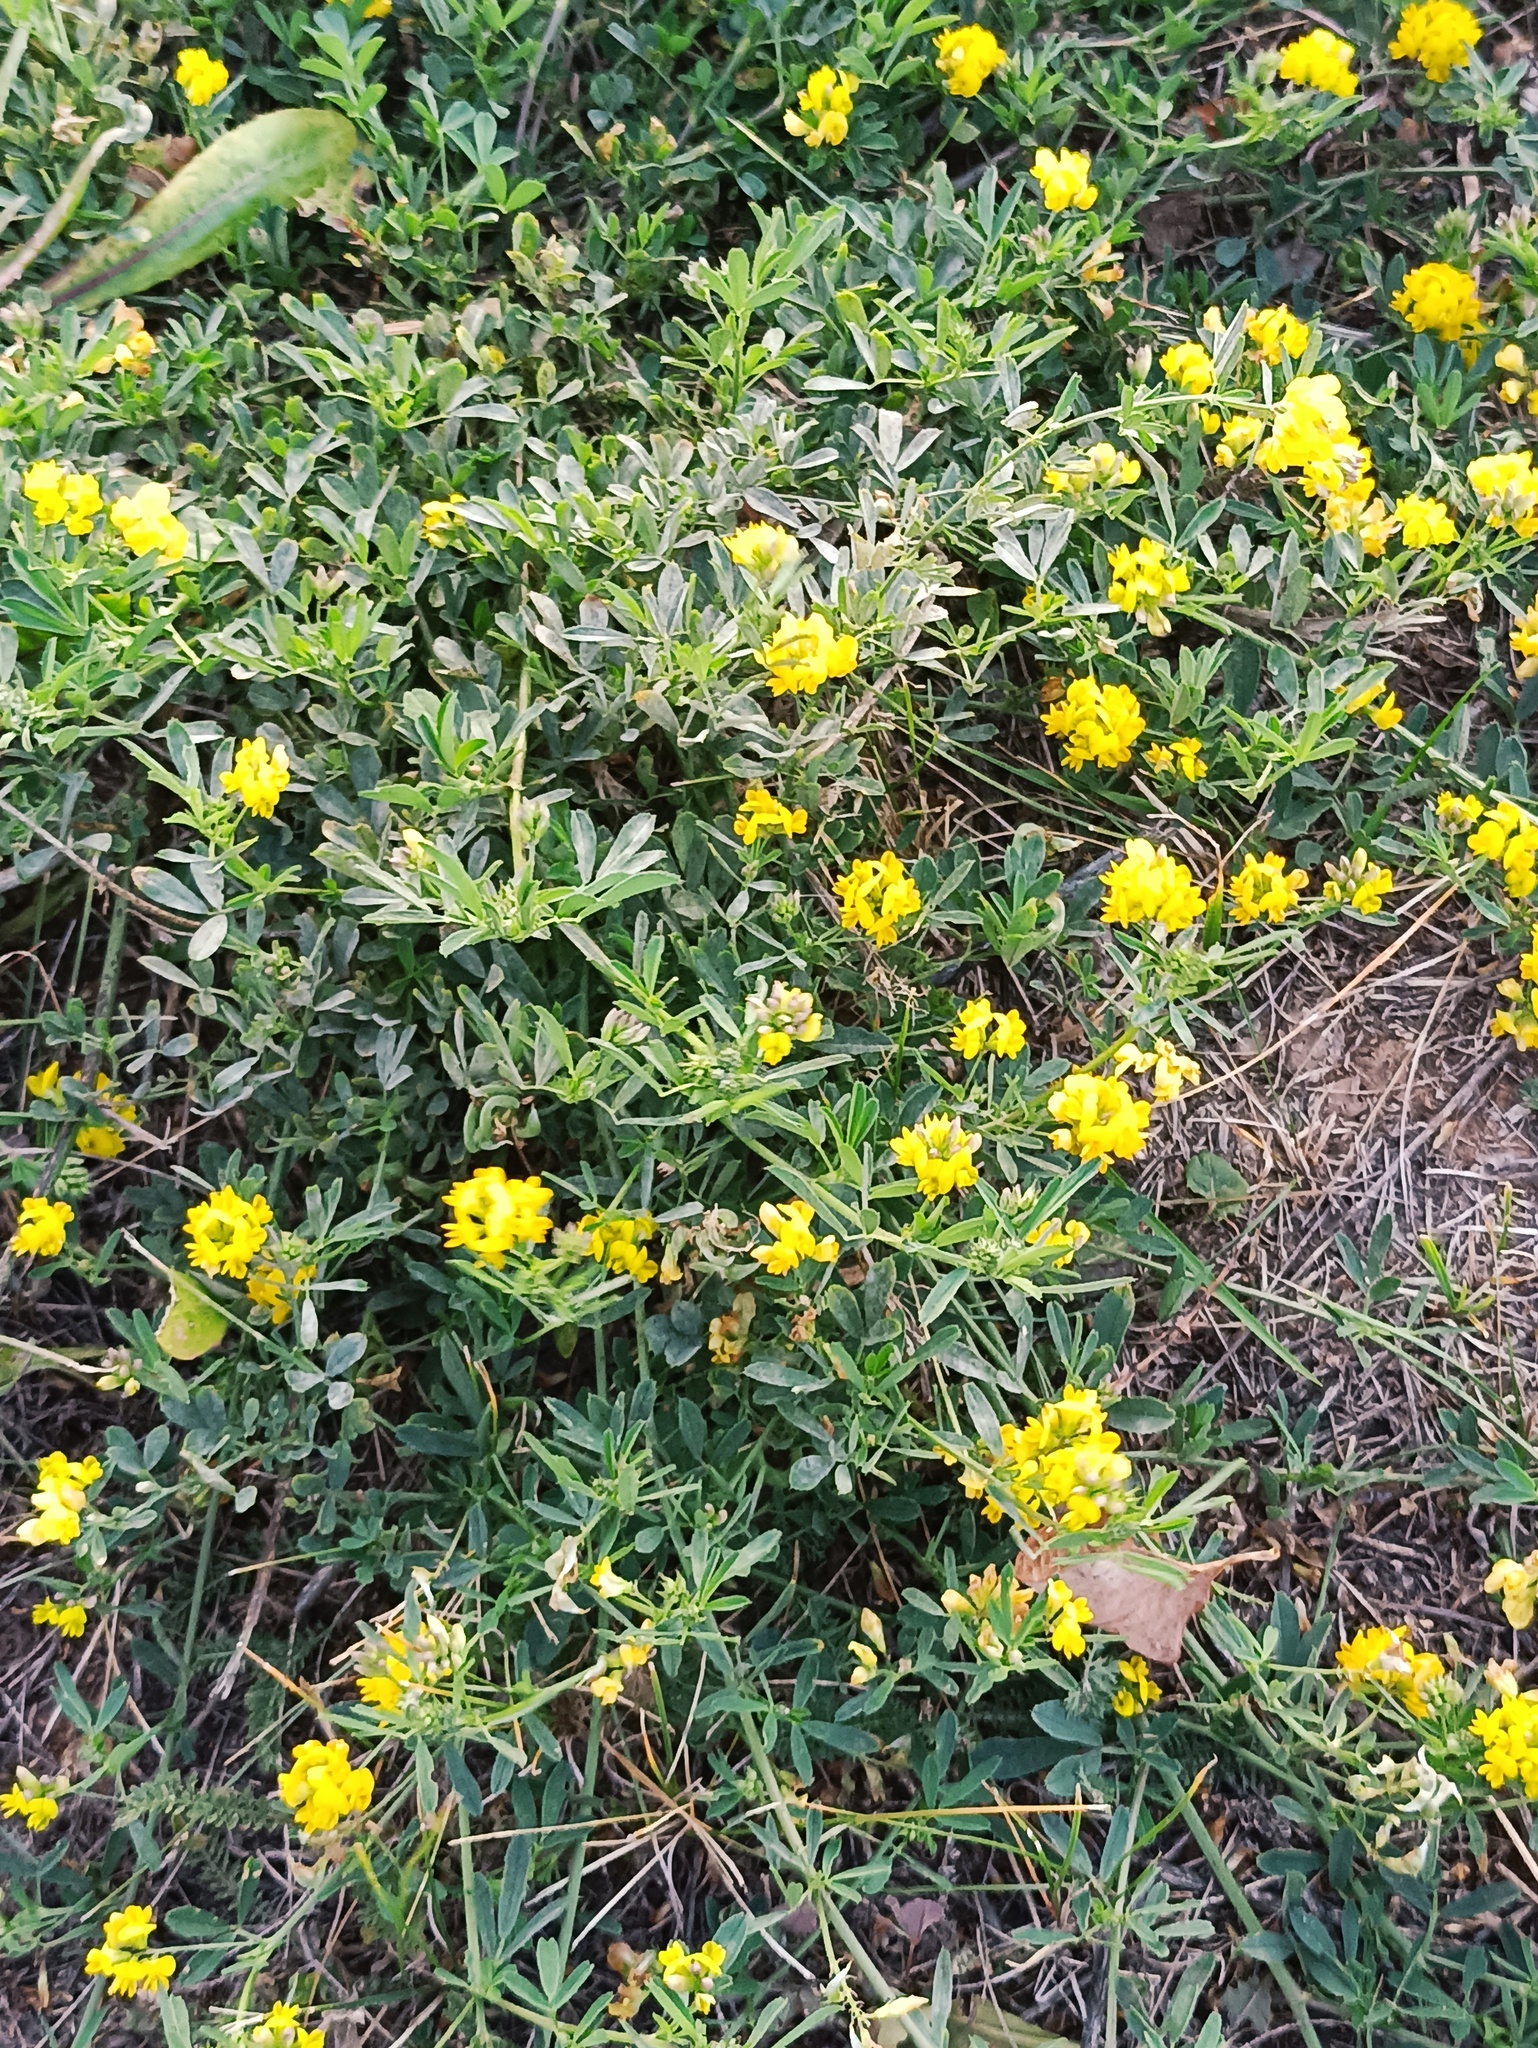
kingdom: Plantae
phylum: Tracheophyta
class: Magnoliopsida
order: Fabales
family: Fabaceae
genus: Medicago
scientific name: Medicago falcata
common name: Sickle medick
